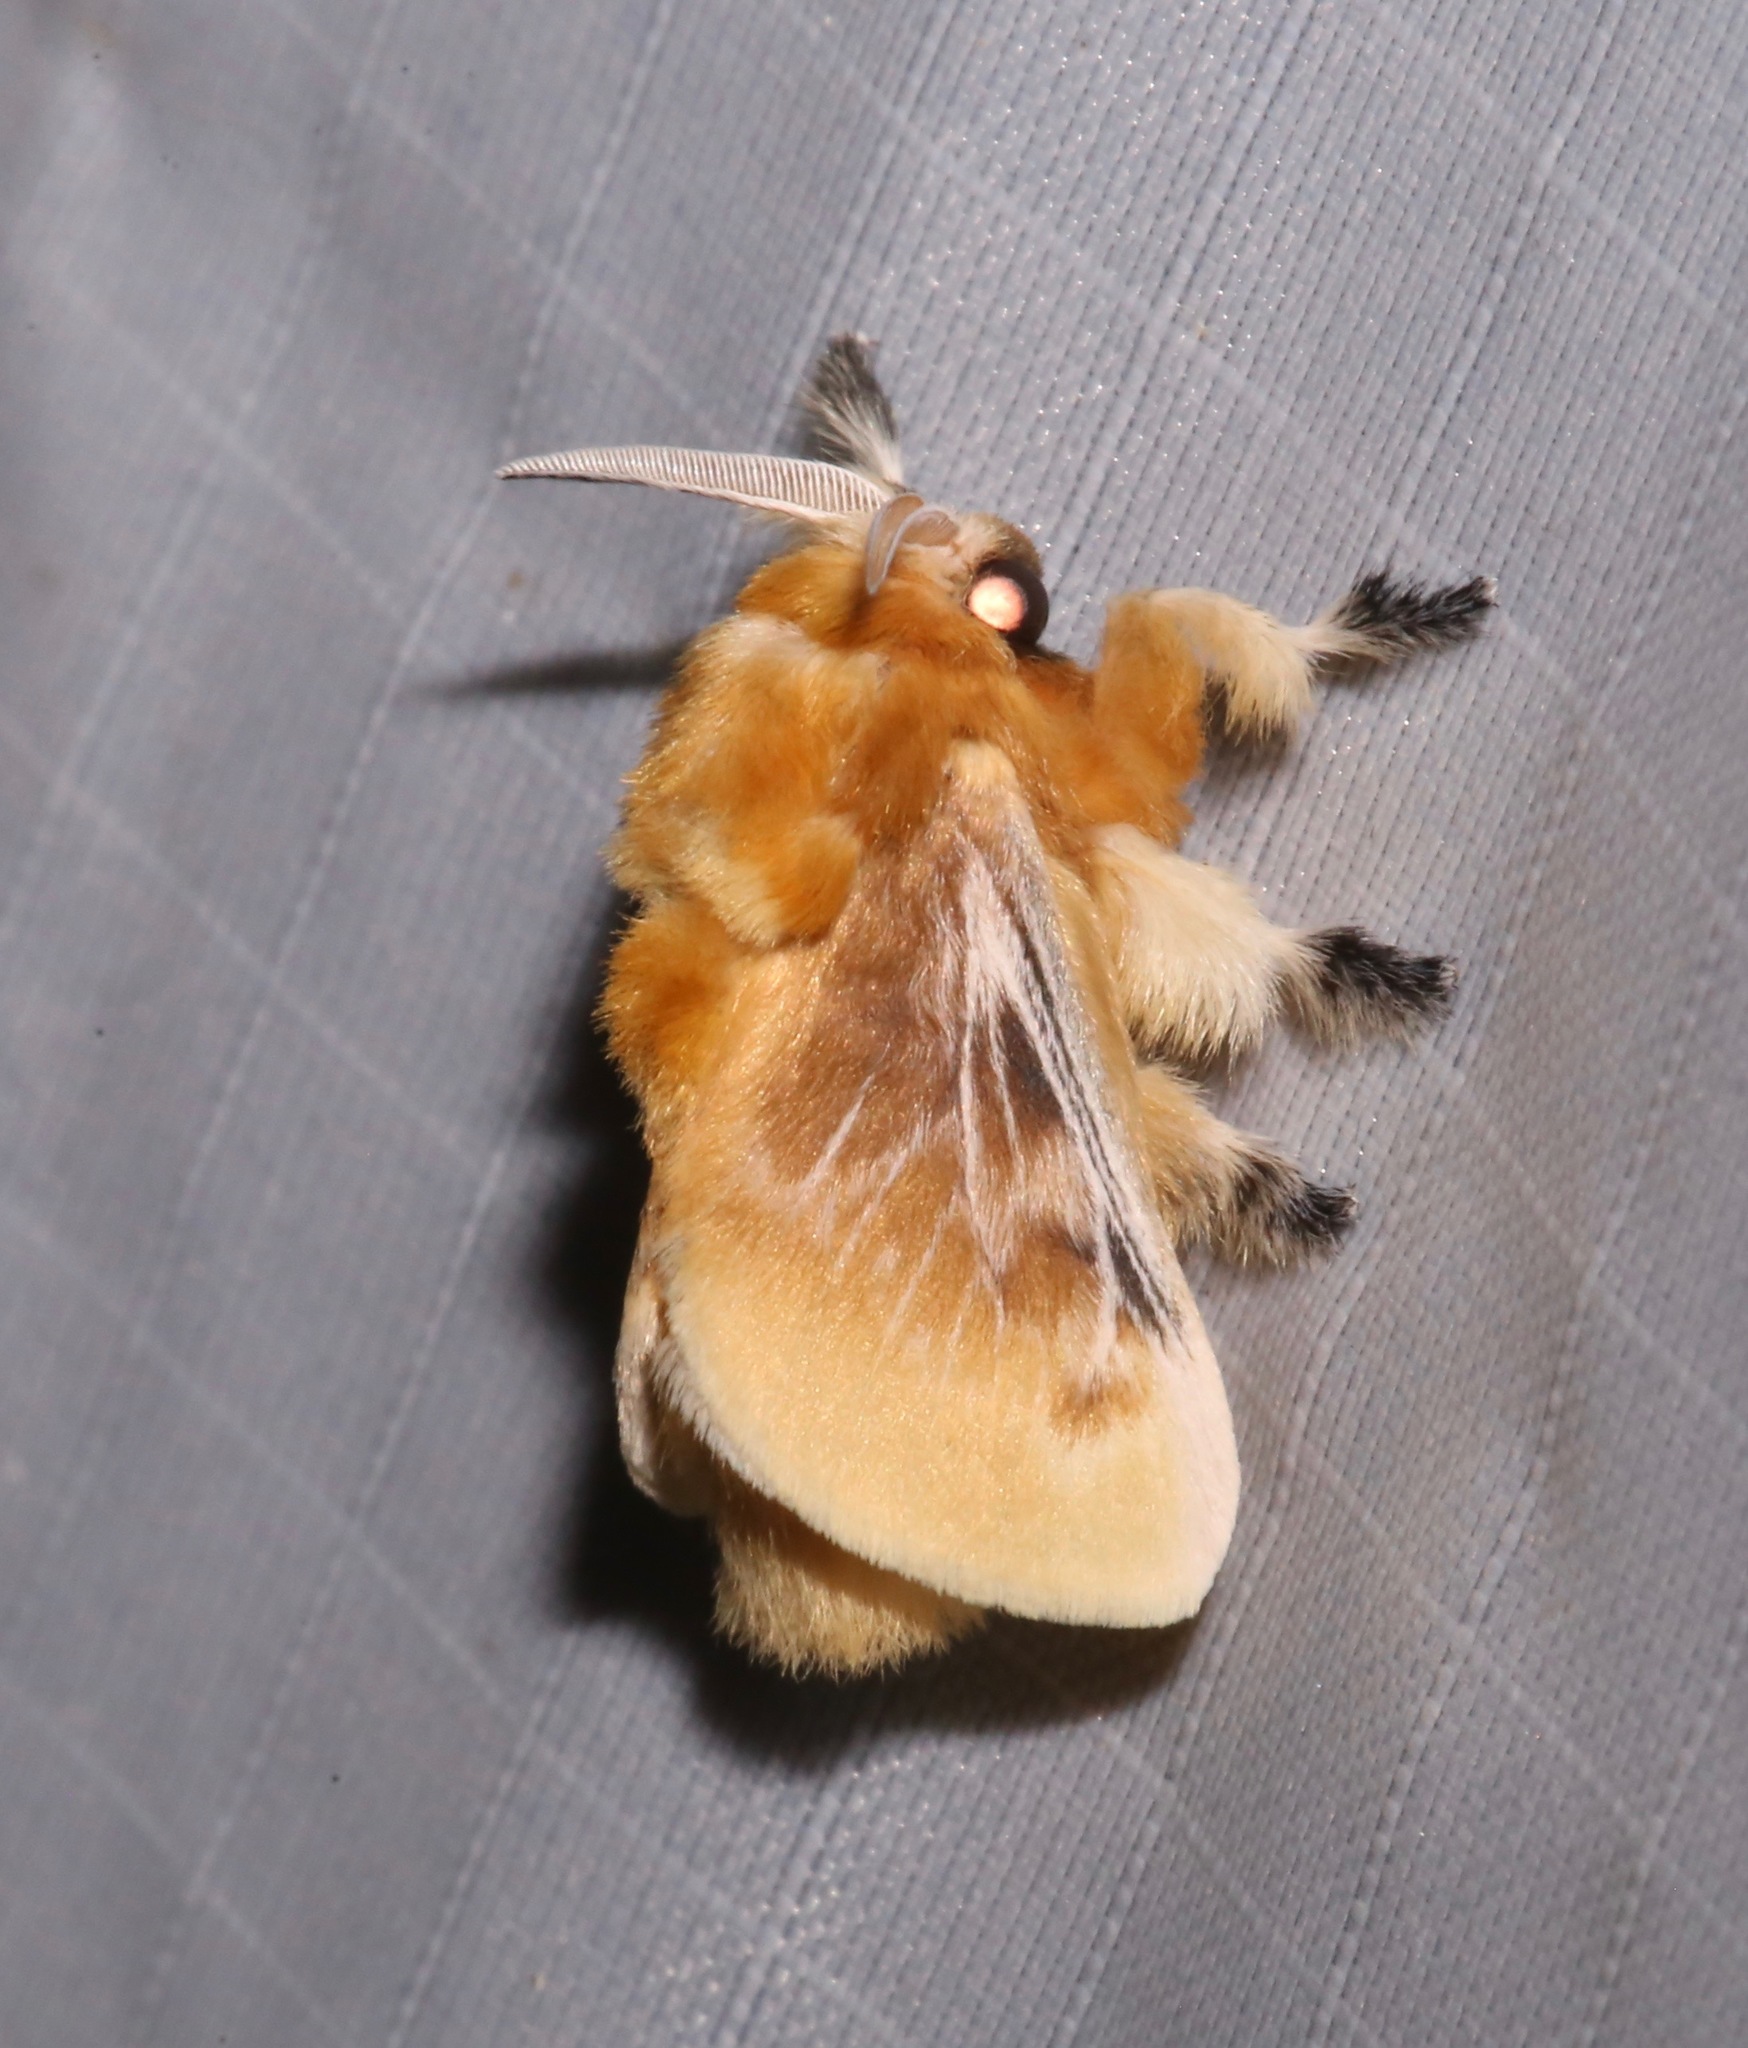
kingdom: Animalia
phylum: Arthropoda
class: Insecta
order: Lepidoptera
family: Megalopygidae
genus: Megalopyge
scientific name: Megalopyge opercularis
